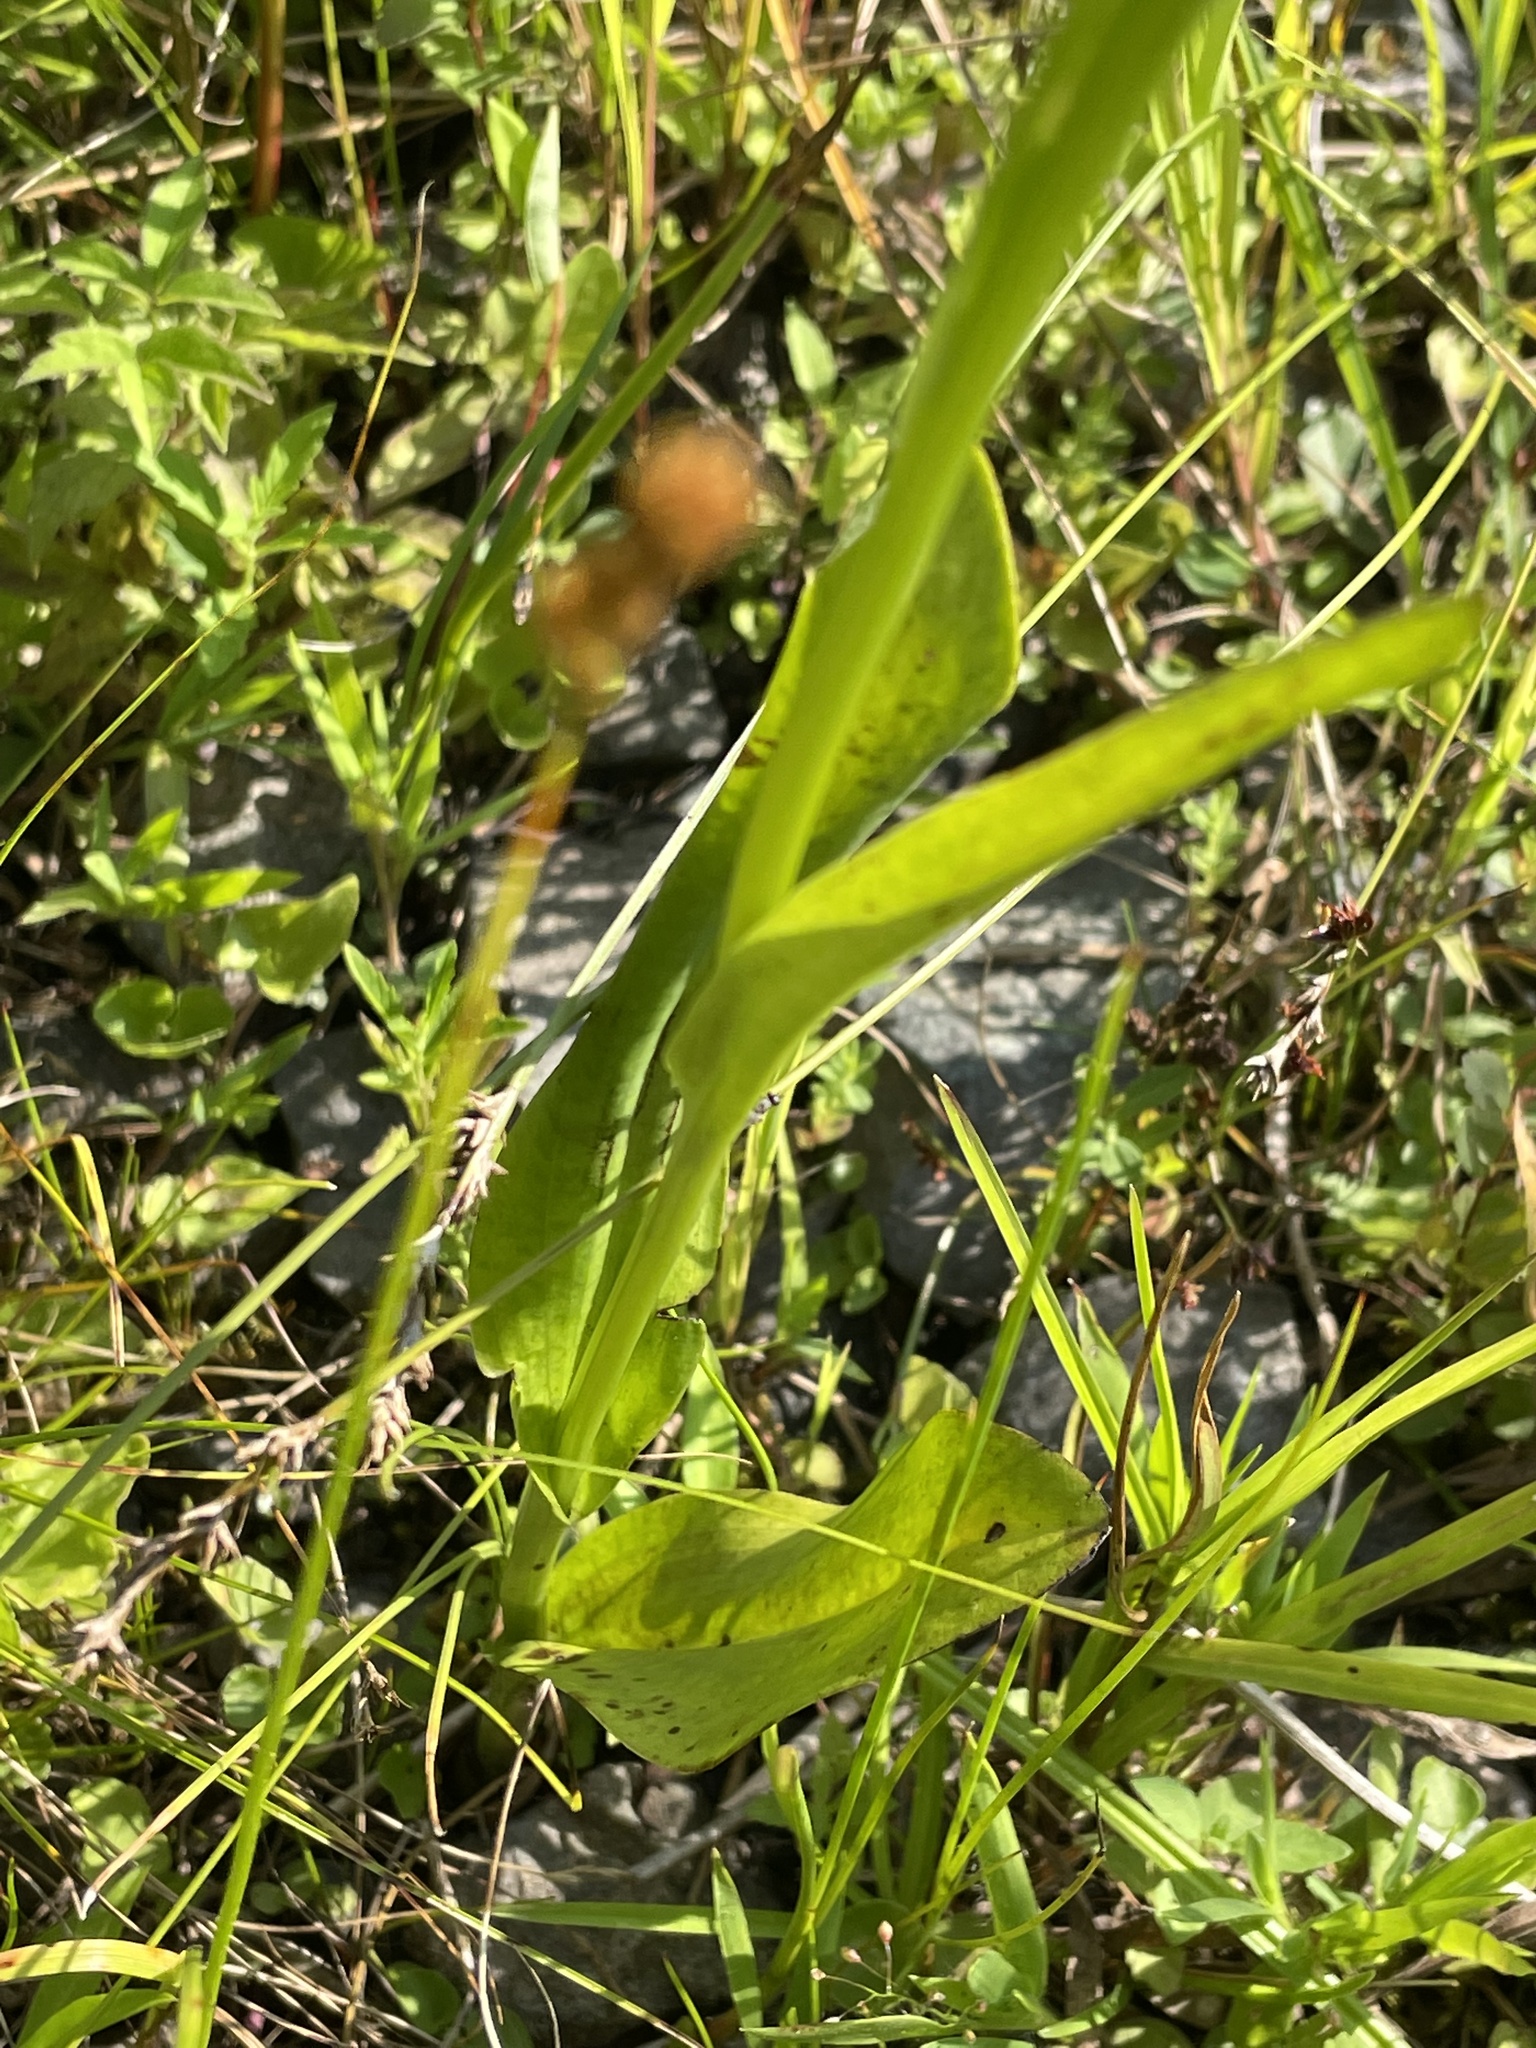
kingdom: Plantae
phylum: Tracheophyta
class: Liliopsida
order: Asparagales
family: Orchidaceae
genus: Platanthera
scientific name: Platanthera psycodes
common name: Lesser purple fringed orchid
